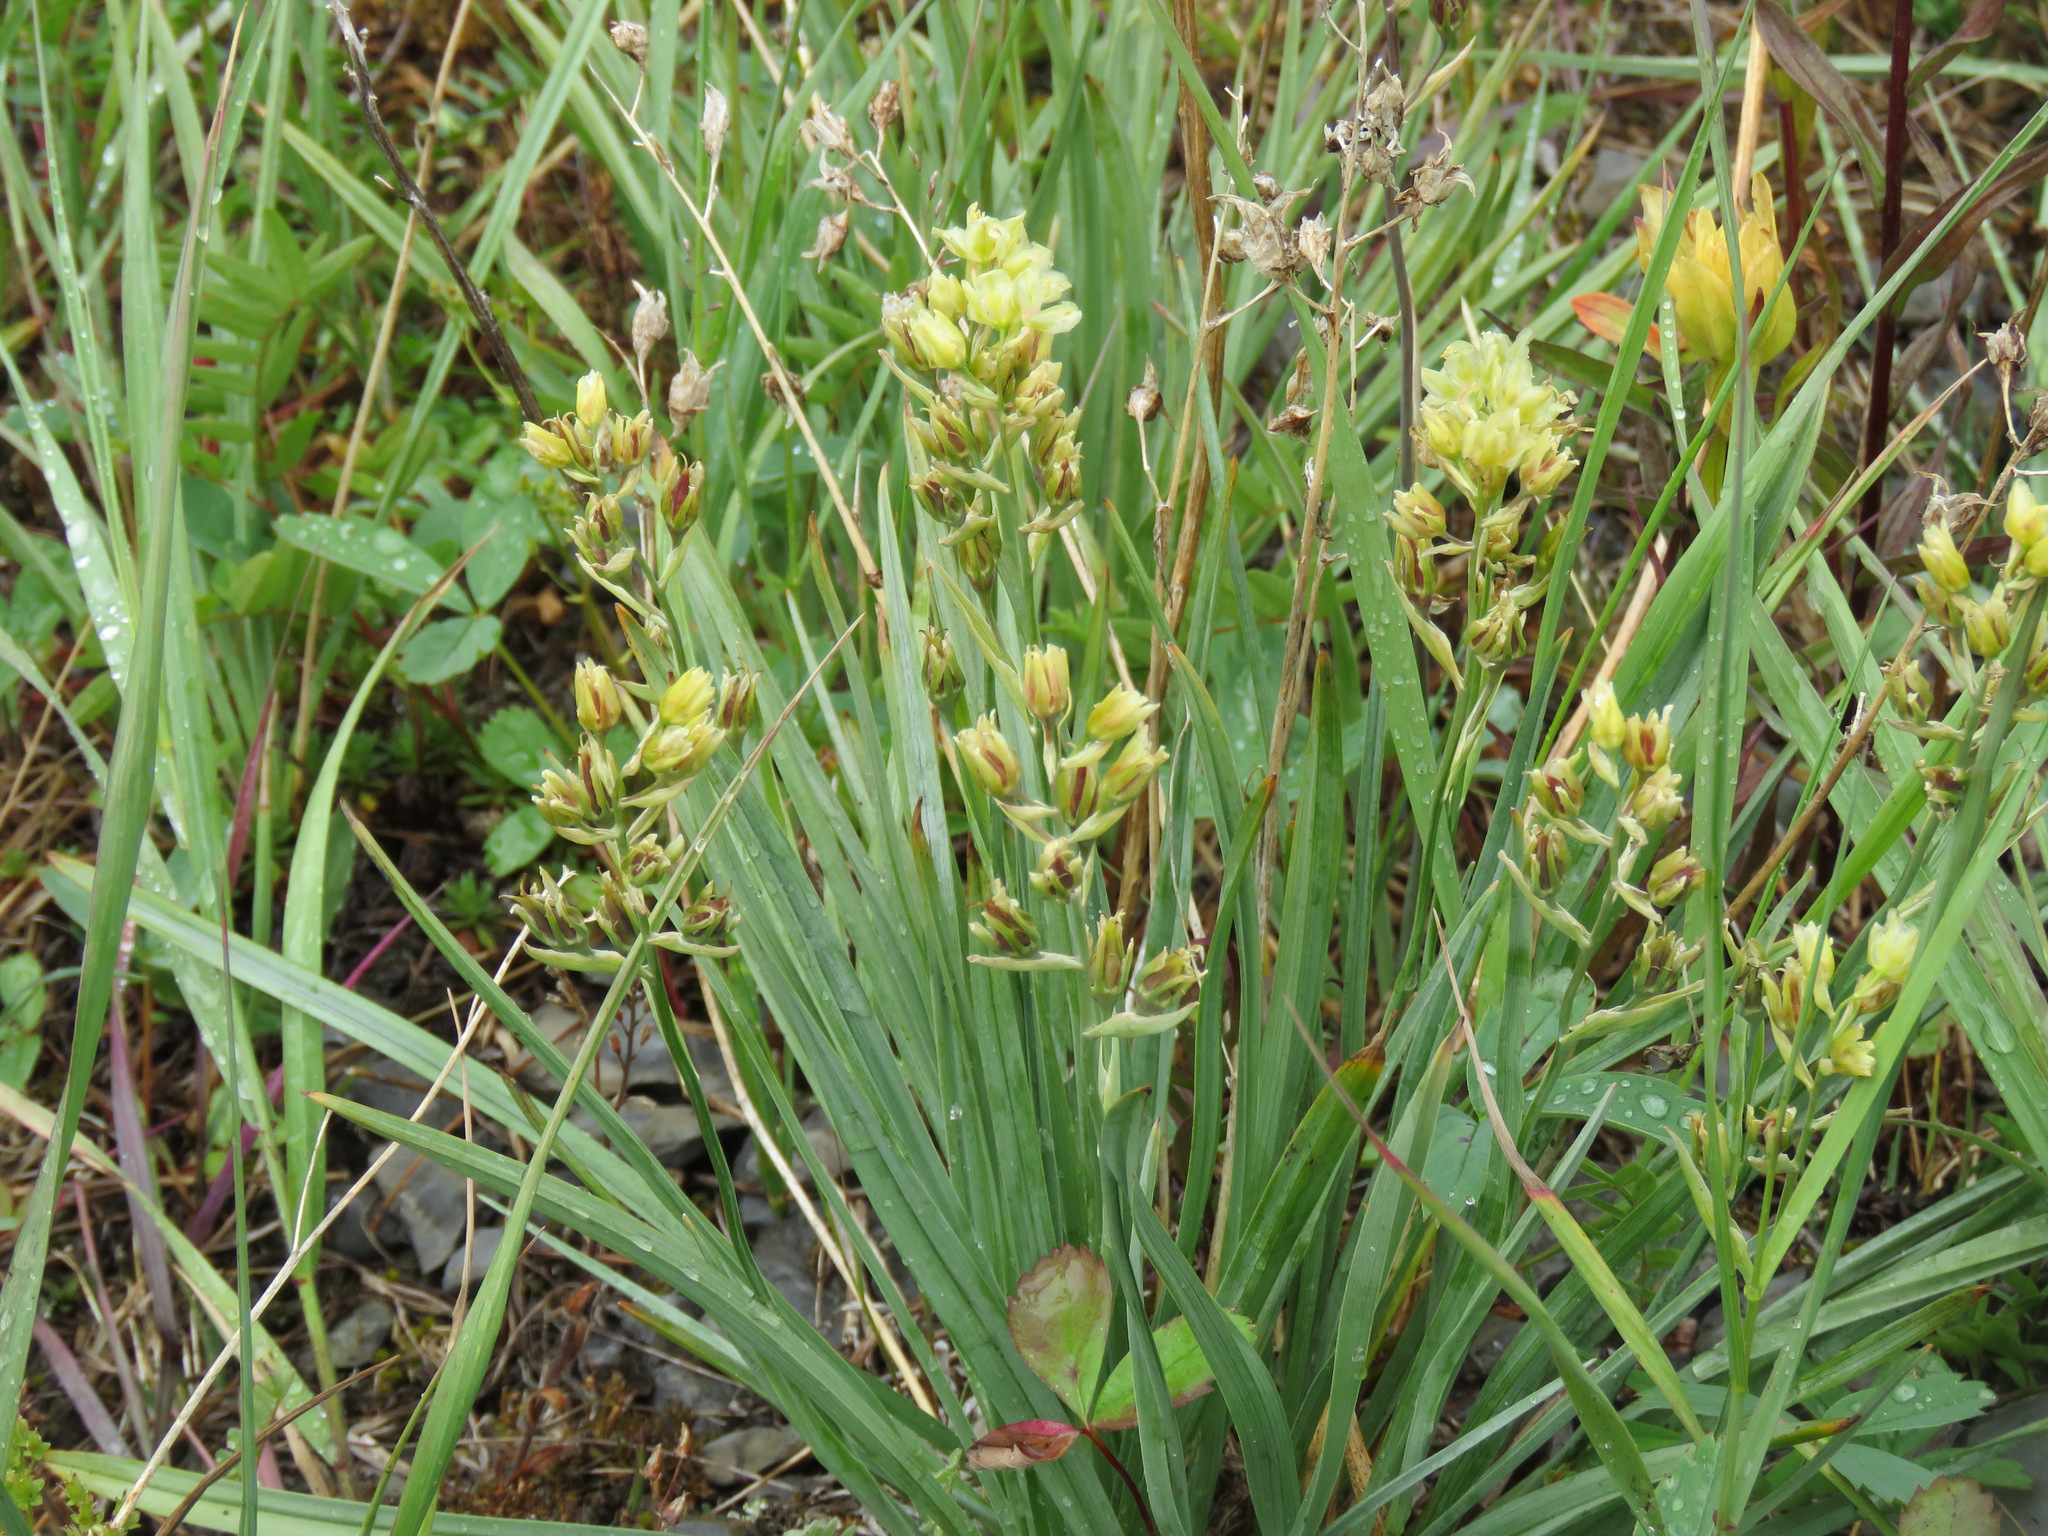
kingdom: Plantae
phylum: Tracheophyta
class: Liliopsida
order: Liliales
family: Melanthiaceae
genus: Anticlea
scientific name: Anticlea elegans
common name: Mountain death camas
